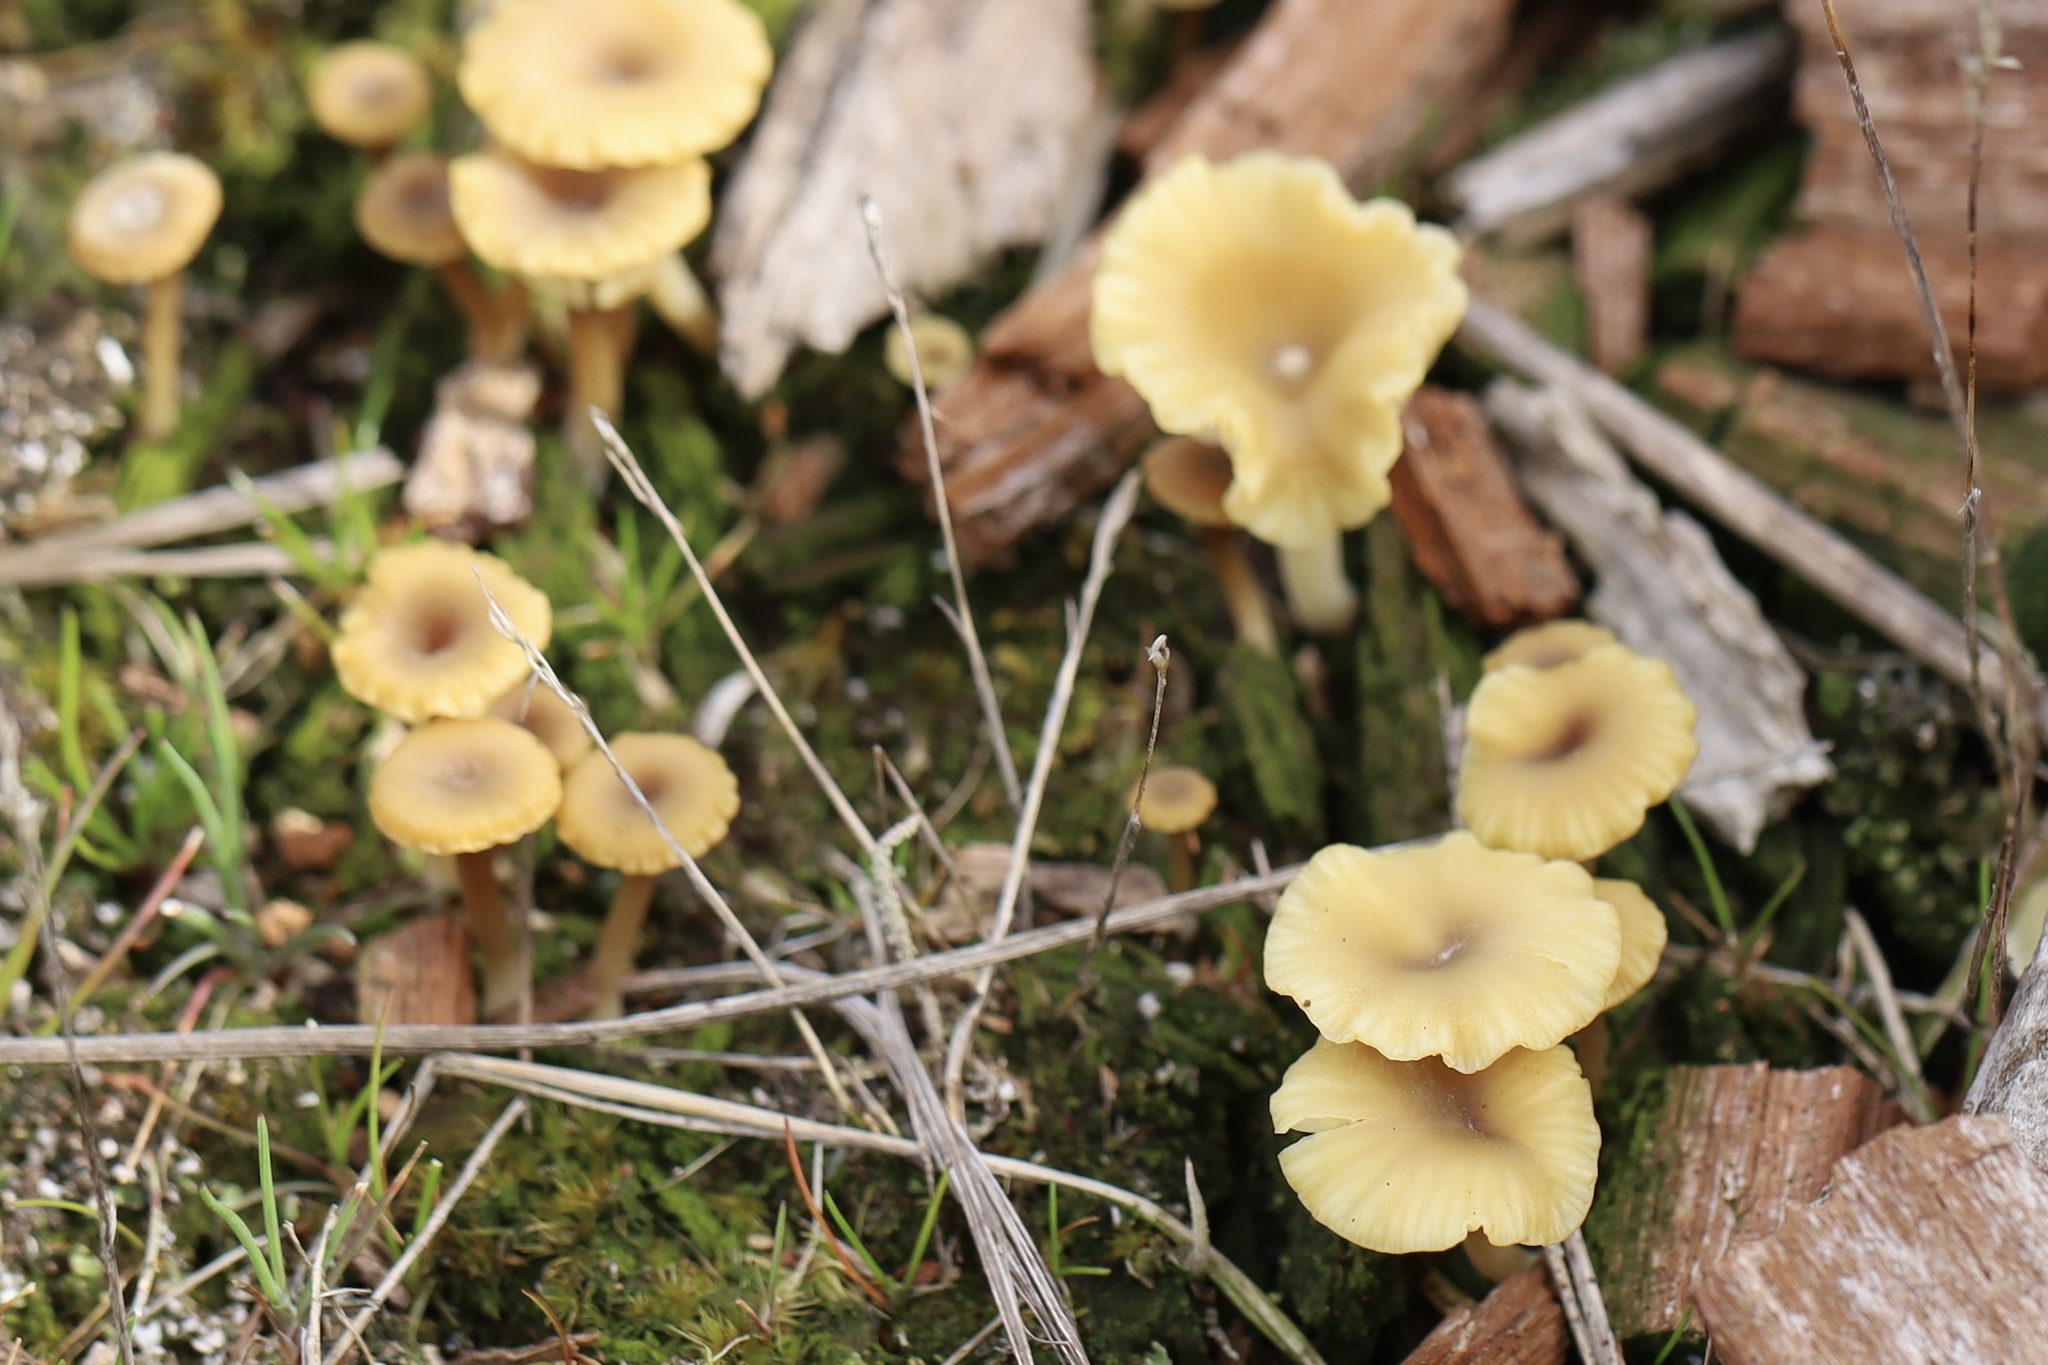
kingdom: Fungi
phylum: Basidiomycota
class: Agaricomycetes
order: Agaricales
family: Hygrophoraceae
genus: Lichenomphalia
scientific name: Lichenomphalia
